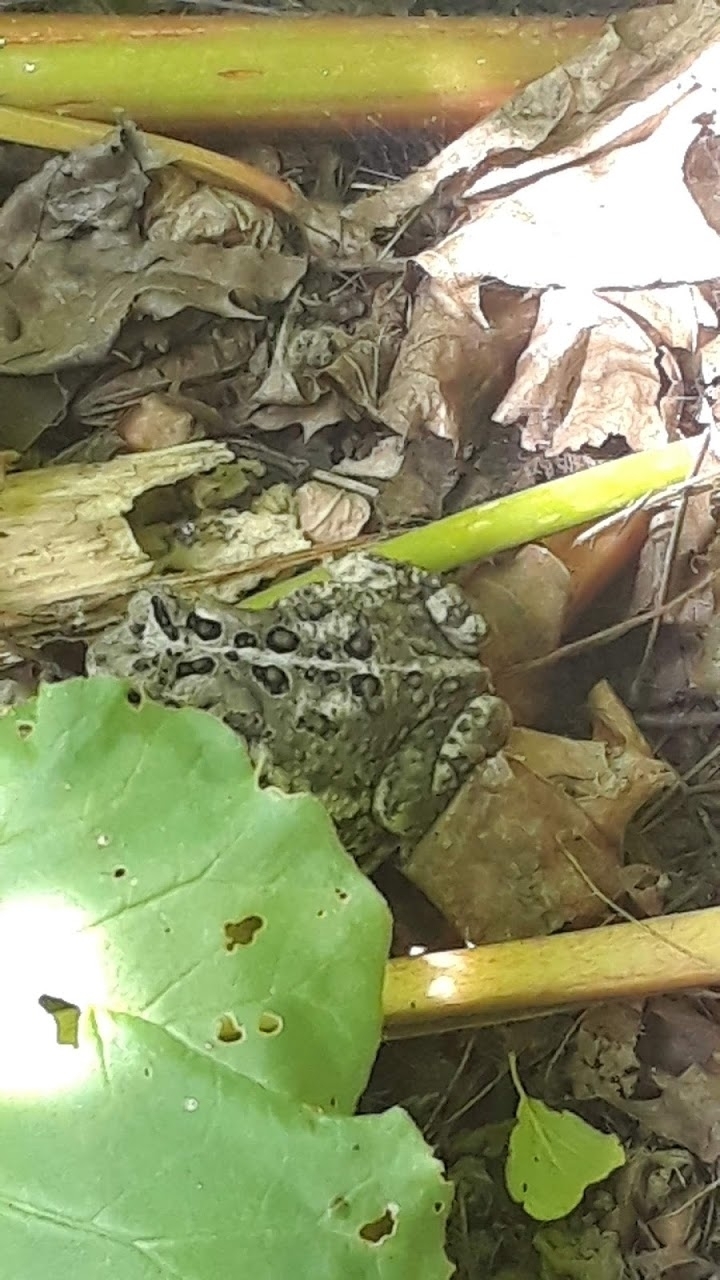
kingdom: Animalia
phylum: Chordata
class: Amphibia
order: Anura
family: Bufonidae
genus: Anaxyrus
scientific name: Anaxyrus americanus
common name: American toad
